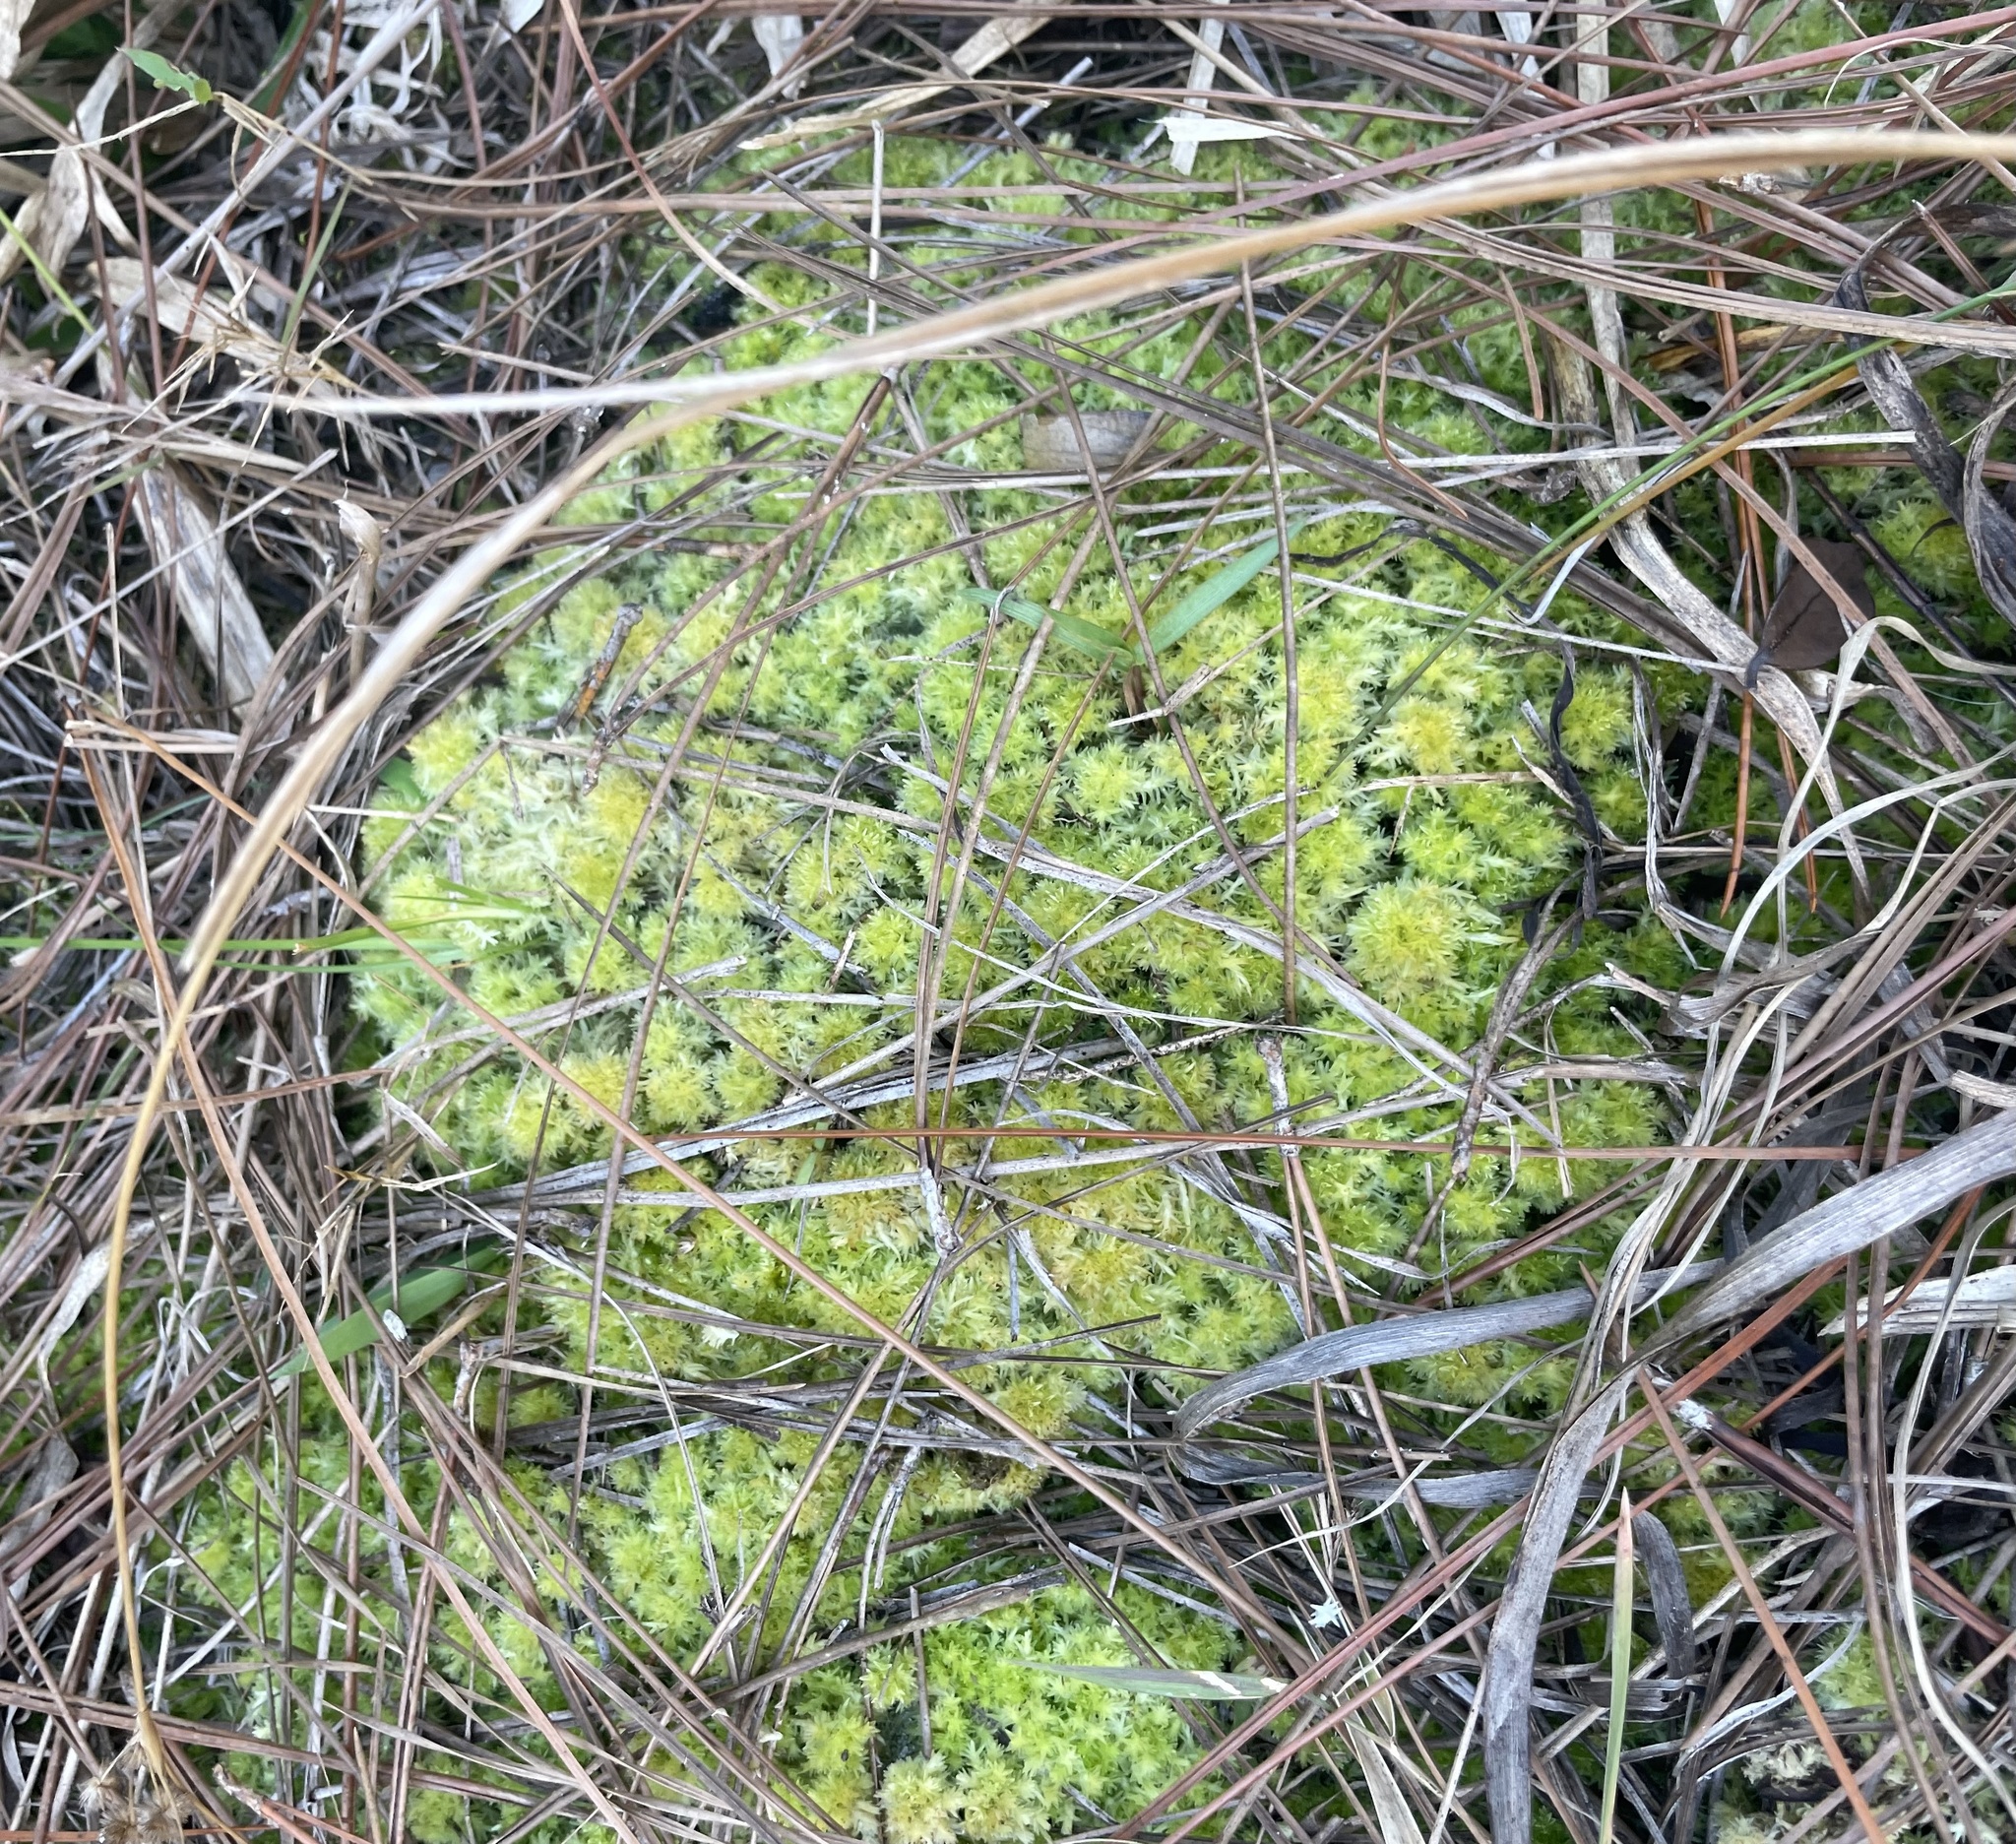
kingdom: Plantae
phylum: Bryophyta
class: Sphagnopsida
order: Sphagnales
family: Sphagnaceae
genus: Sphagnum
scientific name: Sphagnum strictum
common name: Pale bog-moss
